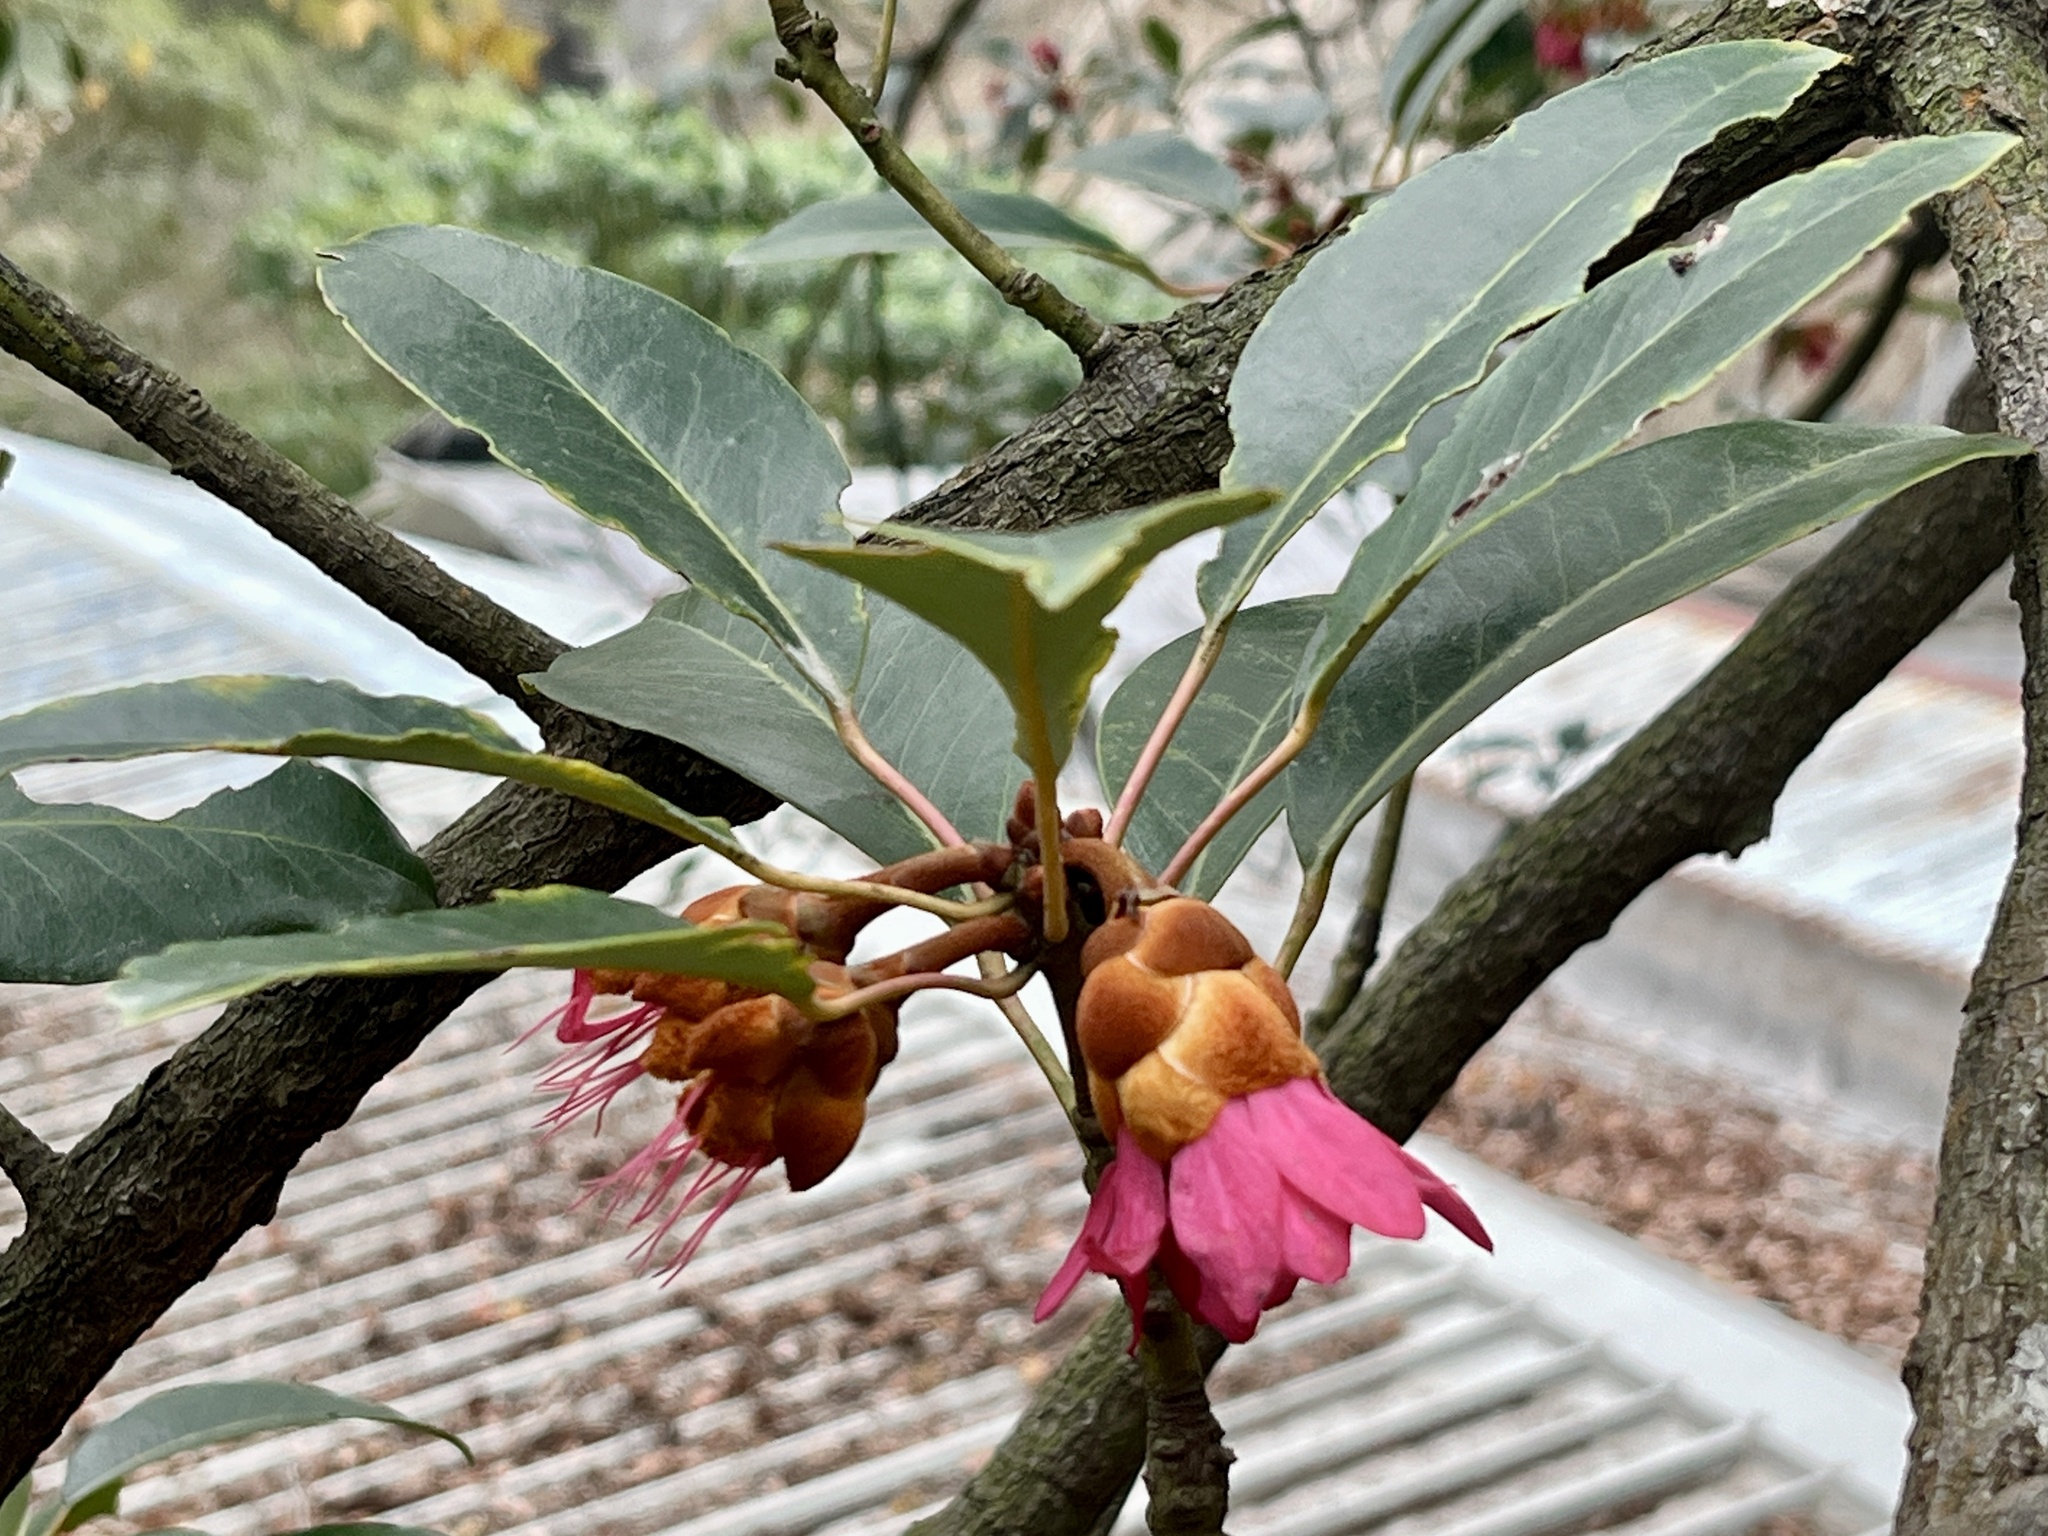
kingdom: Plantae
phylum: Tracheophyta
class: Magnoliopsida
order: Saxifragales
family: Hamamelidaceae
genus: Rhodoleia
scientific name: Rhodoleia championii
